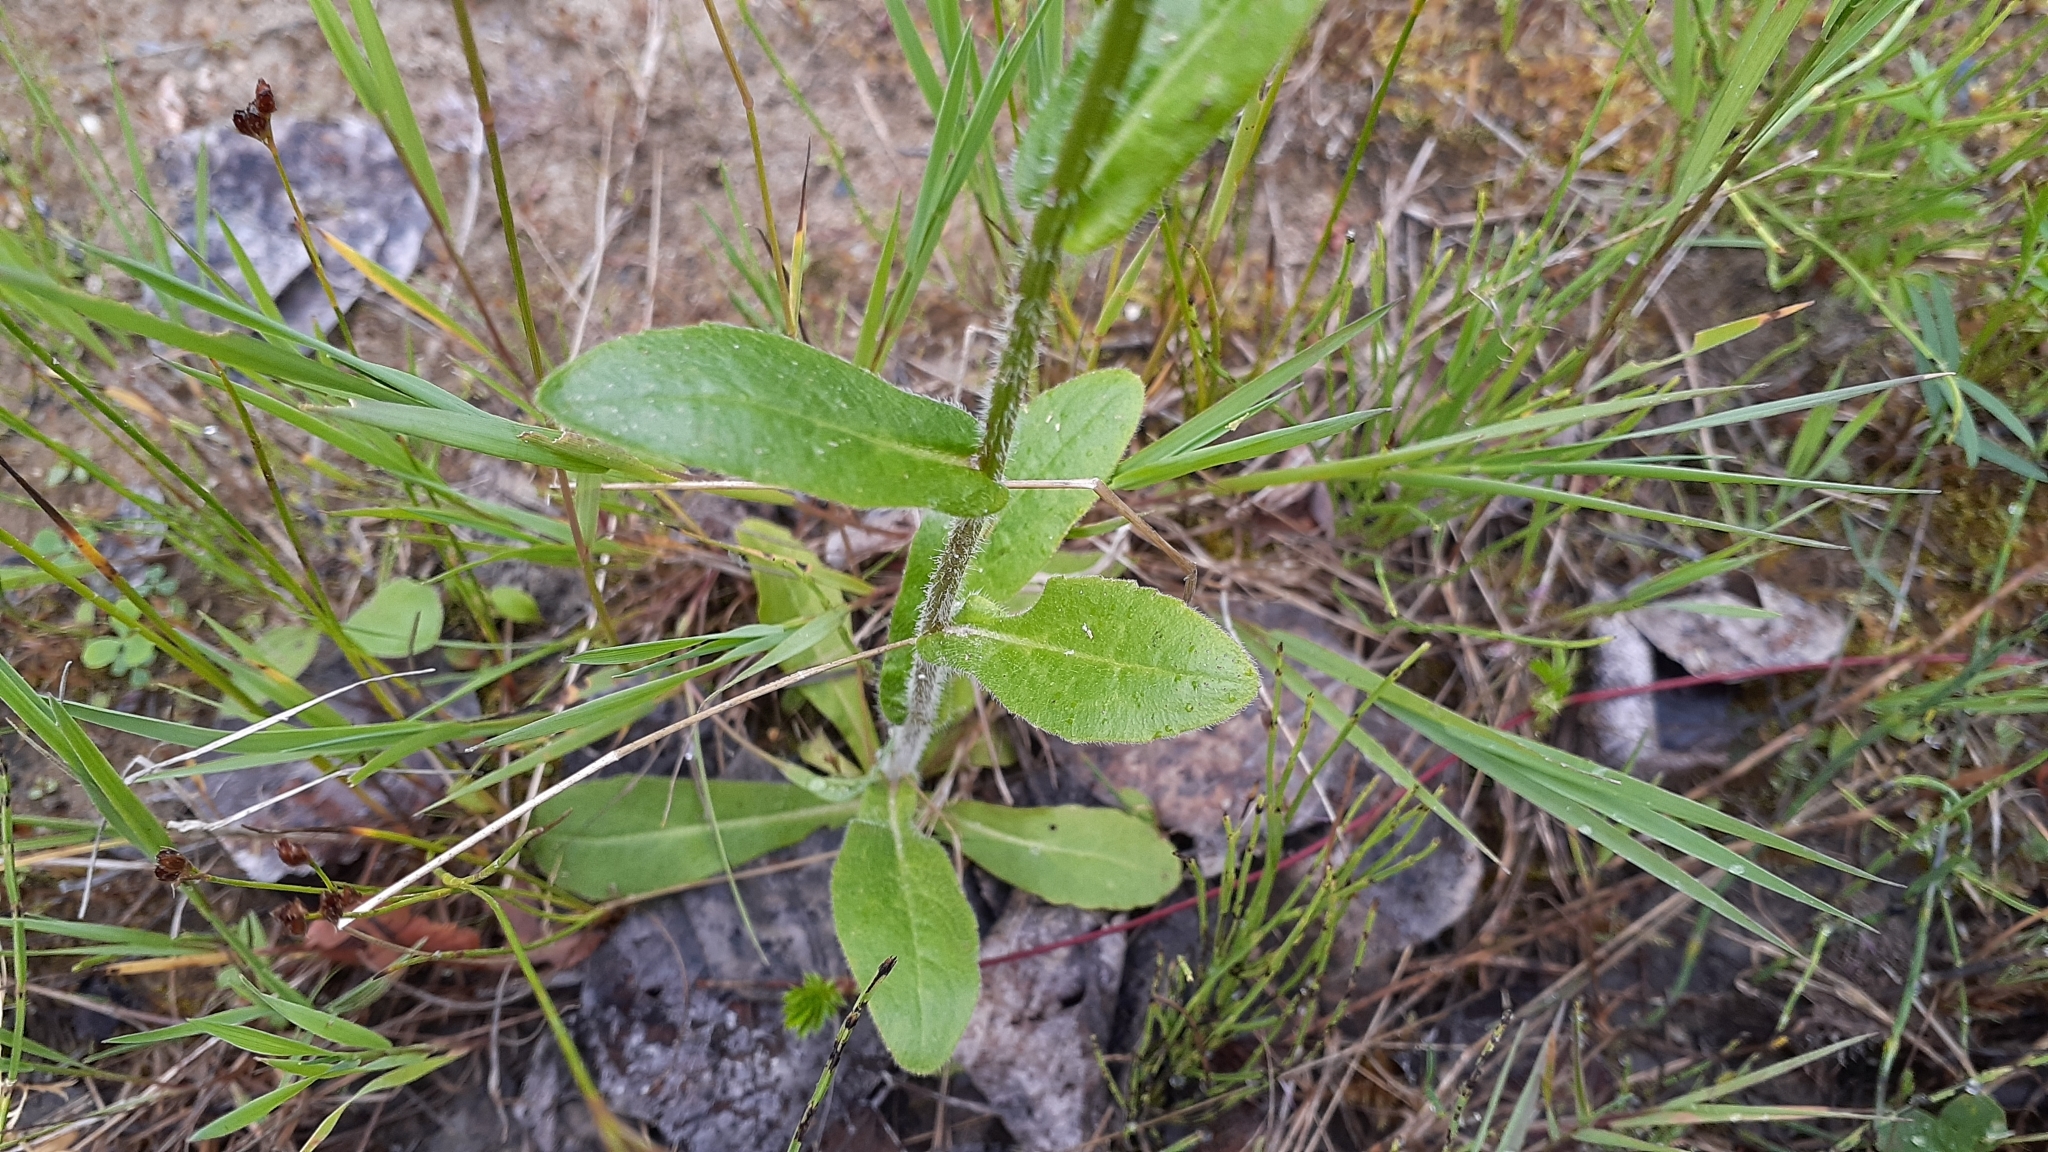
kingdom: Plantae
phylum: Tracheophyta
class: Magnoliopsida
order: Asterales
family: Asteraceae
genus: Erigeron
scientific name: Erigeron philadelphicus
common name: Robin's-plantain
